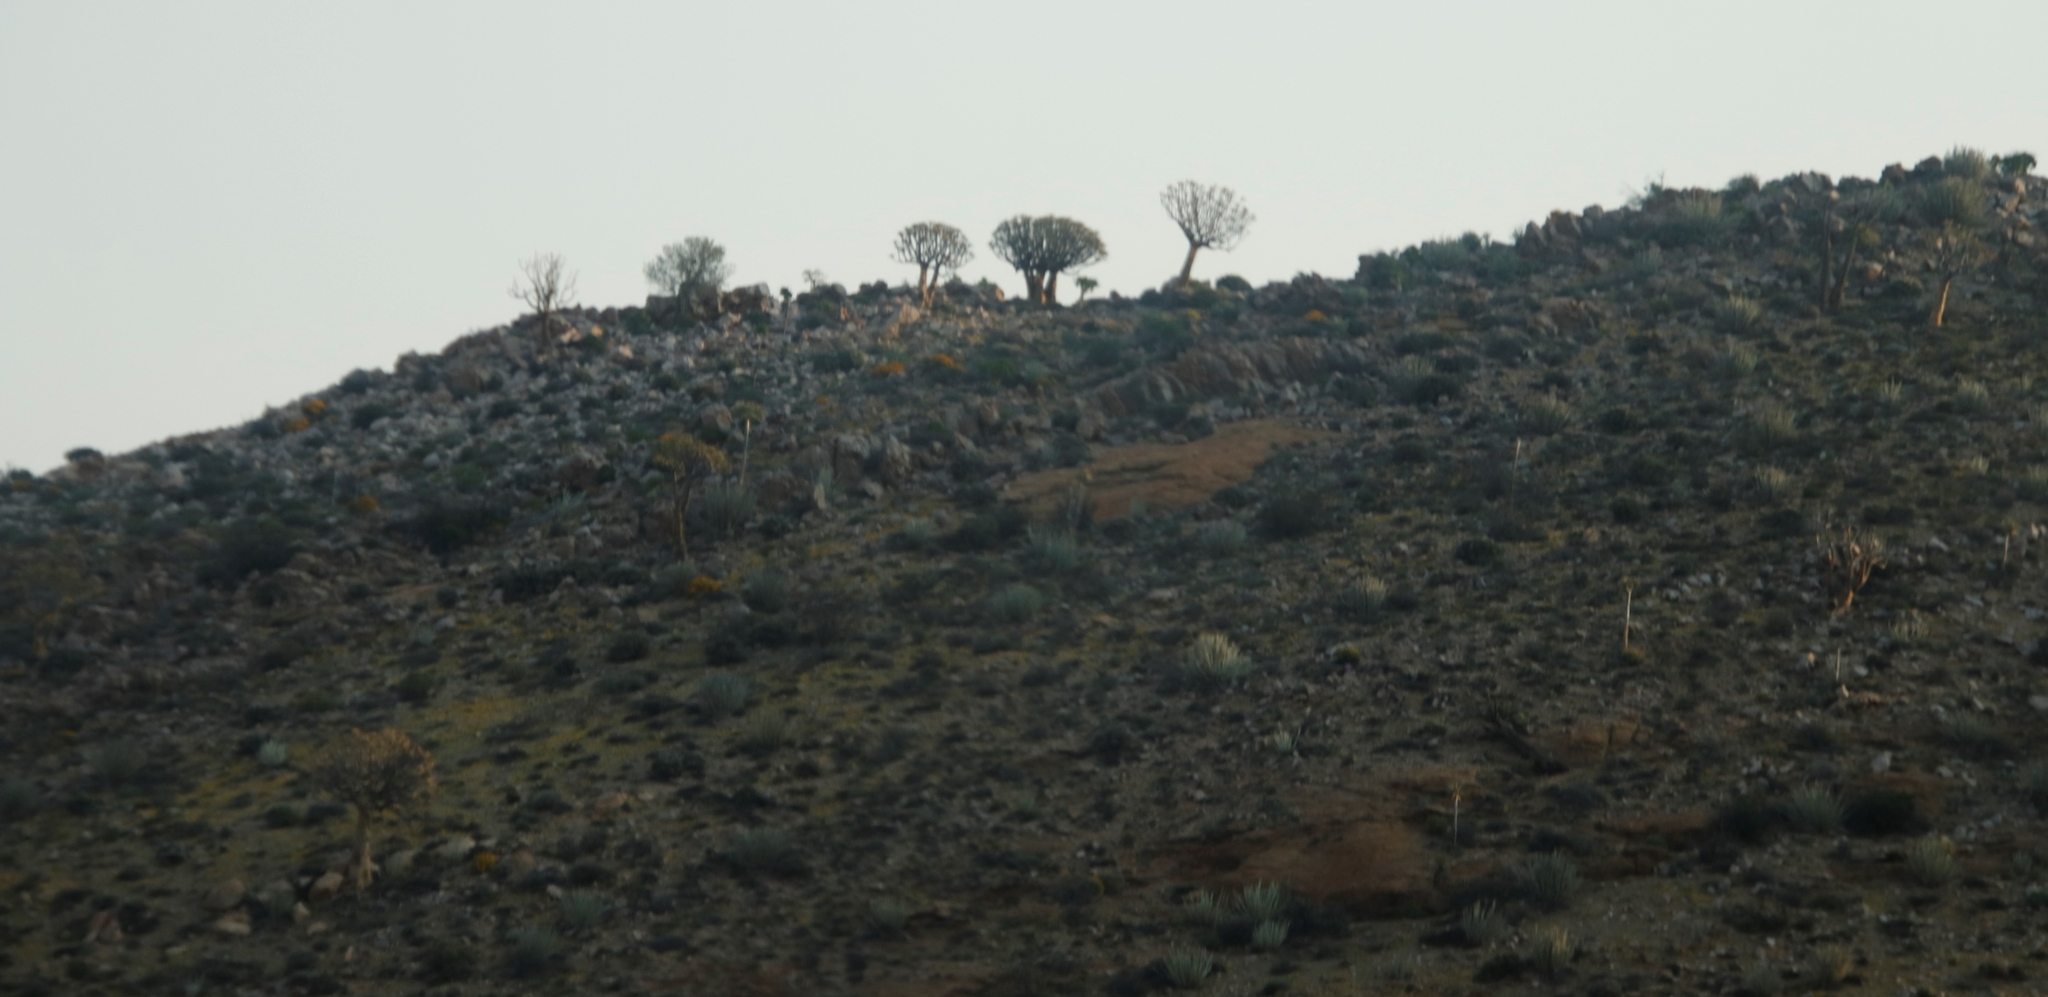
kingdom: Plantae
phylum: Tracheophyta
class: Liliopsida
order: Asparagales
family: Asphodelaceae
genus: Aloidendron
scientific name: Aloidendron dichotomum
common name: Quiver tree
